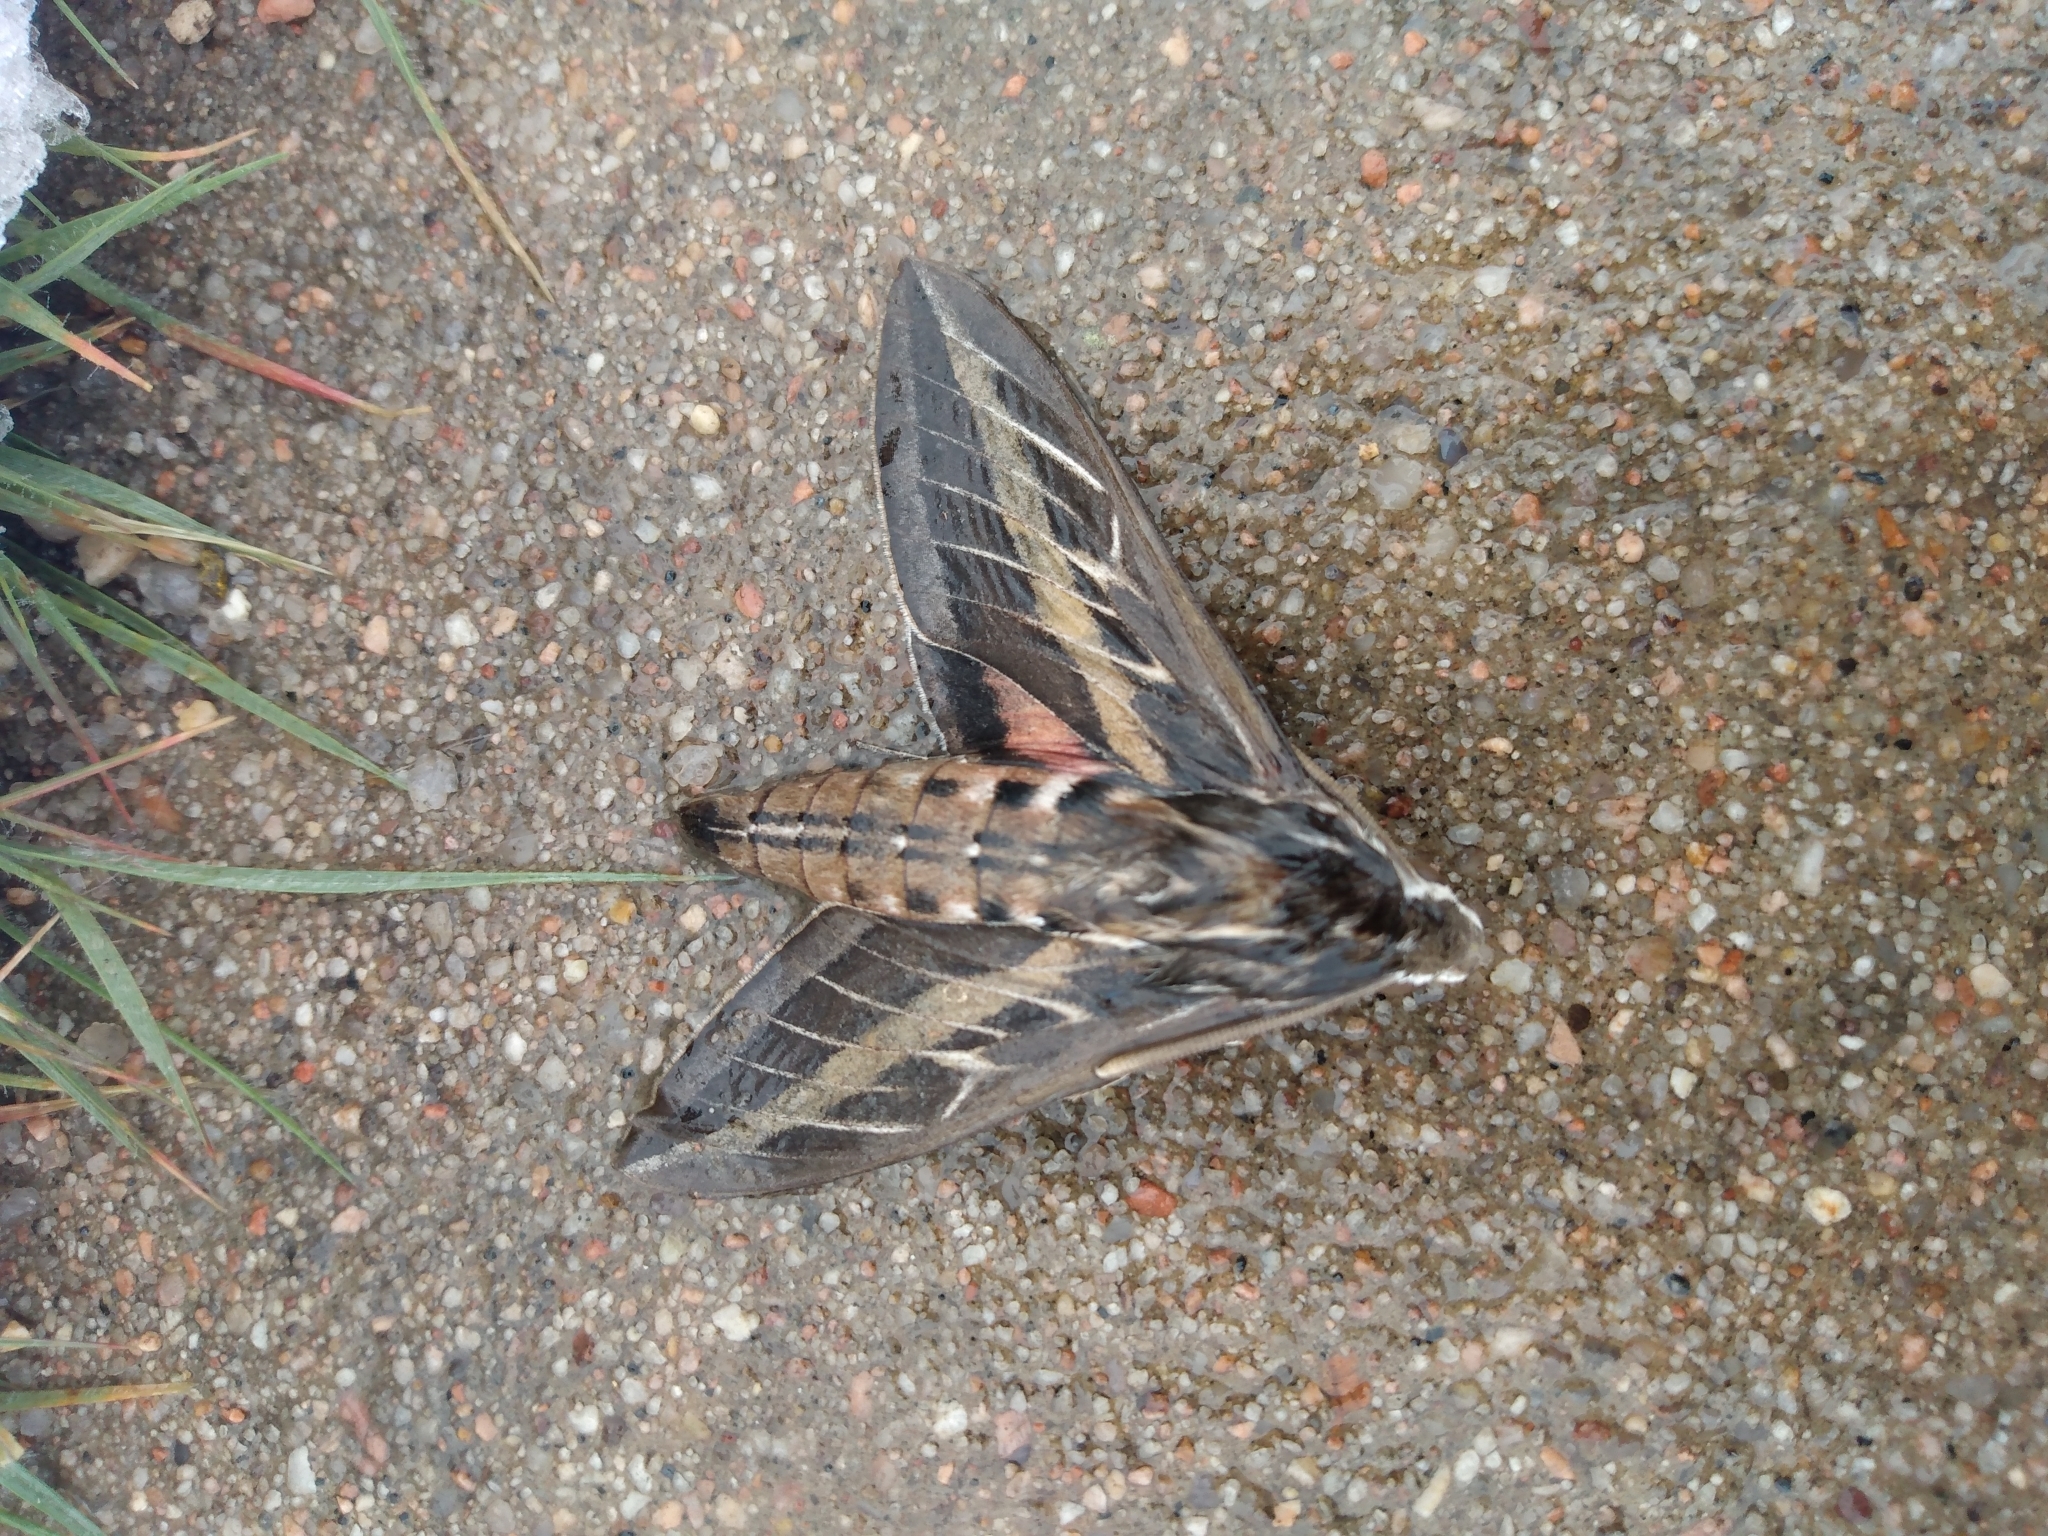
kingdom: Animalia
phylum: Arthropoda
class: Insecta
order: Lepidoptera
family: Sphingidae
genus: Hyles
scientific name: Hyles lineata
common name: White-lined sphinx
